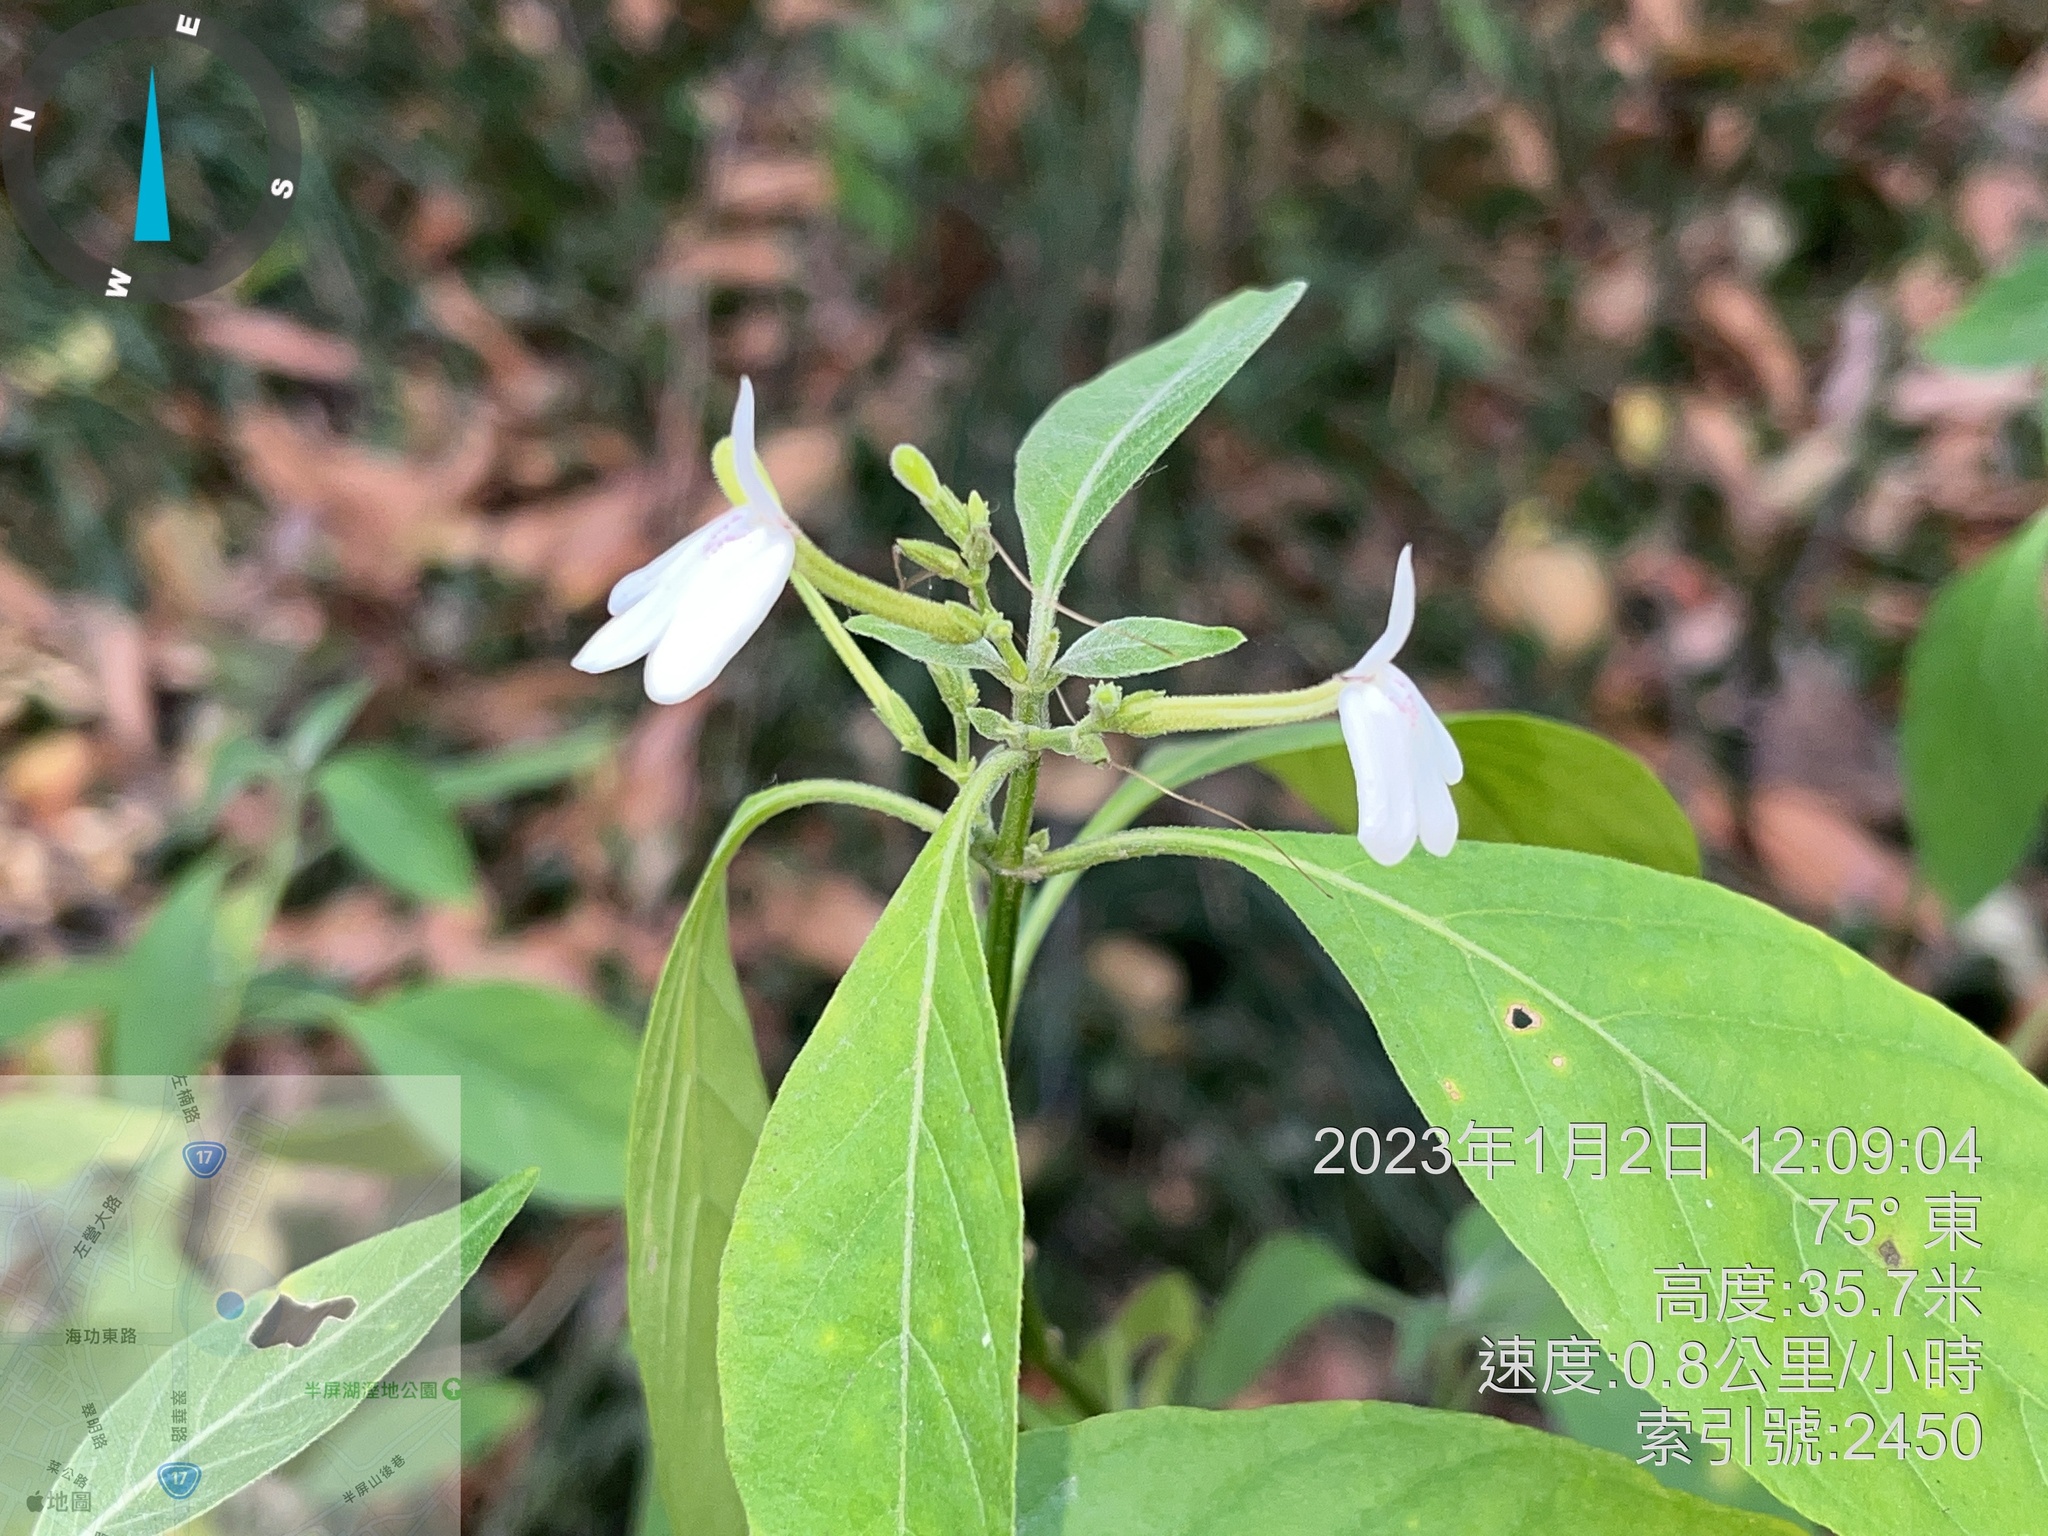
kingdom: Plantae
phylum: Tracheophyta
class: Magnoliopsida
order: Lamiales
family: Acanthaceae
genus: Rhinacanthus
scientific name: Rhinacanthus nasutus
